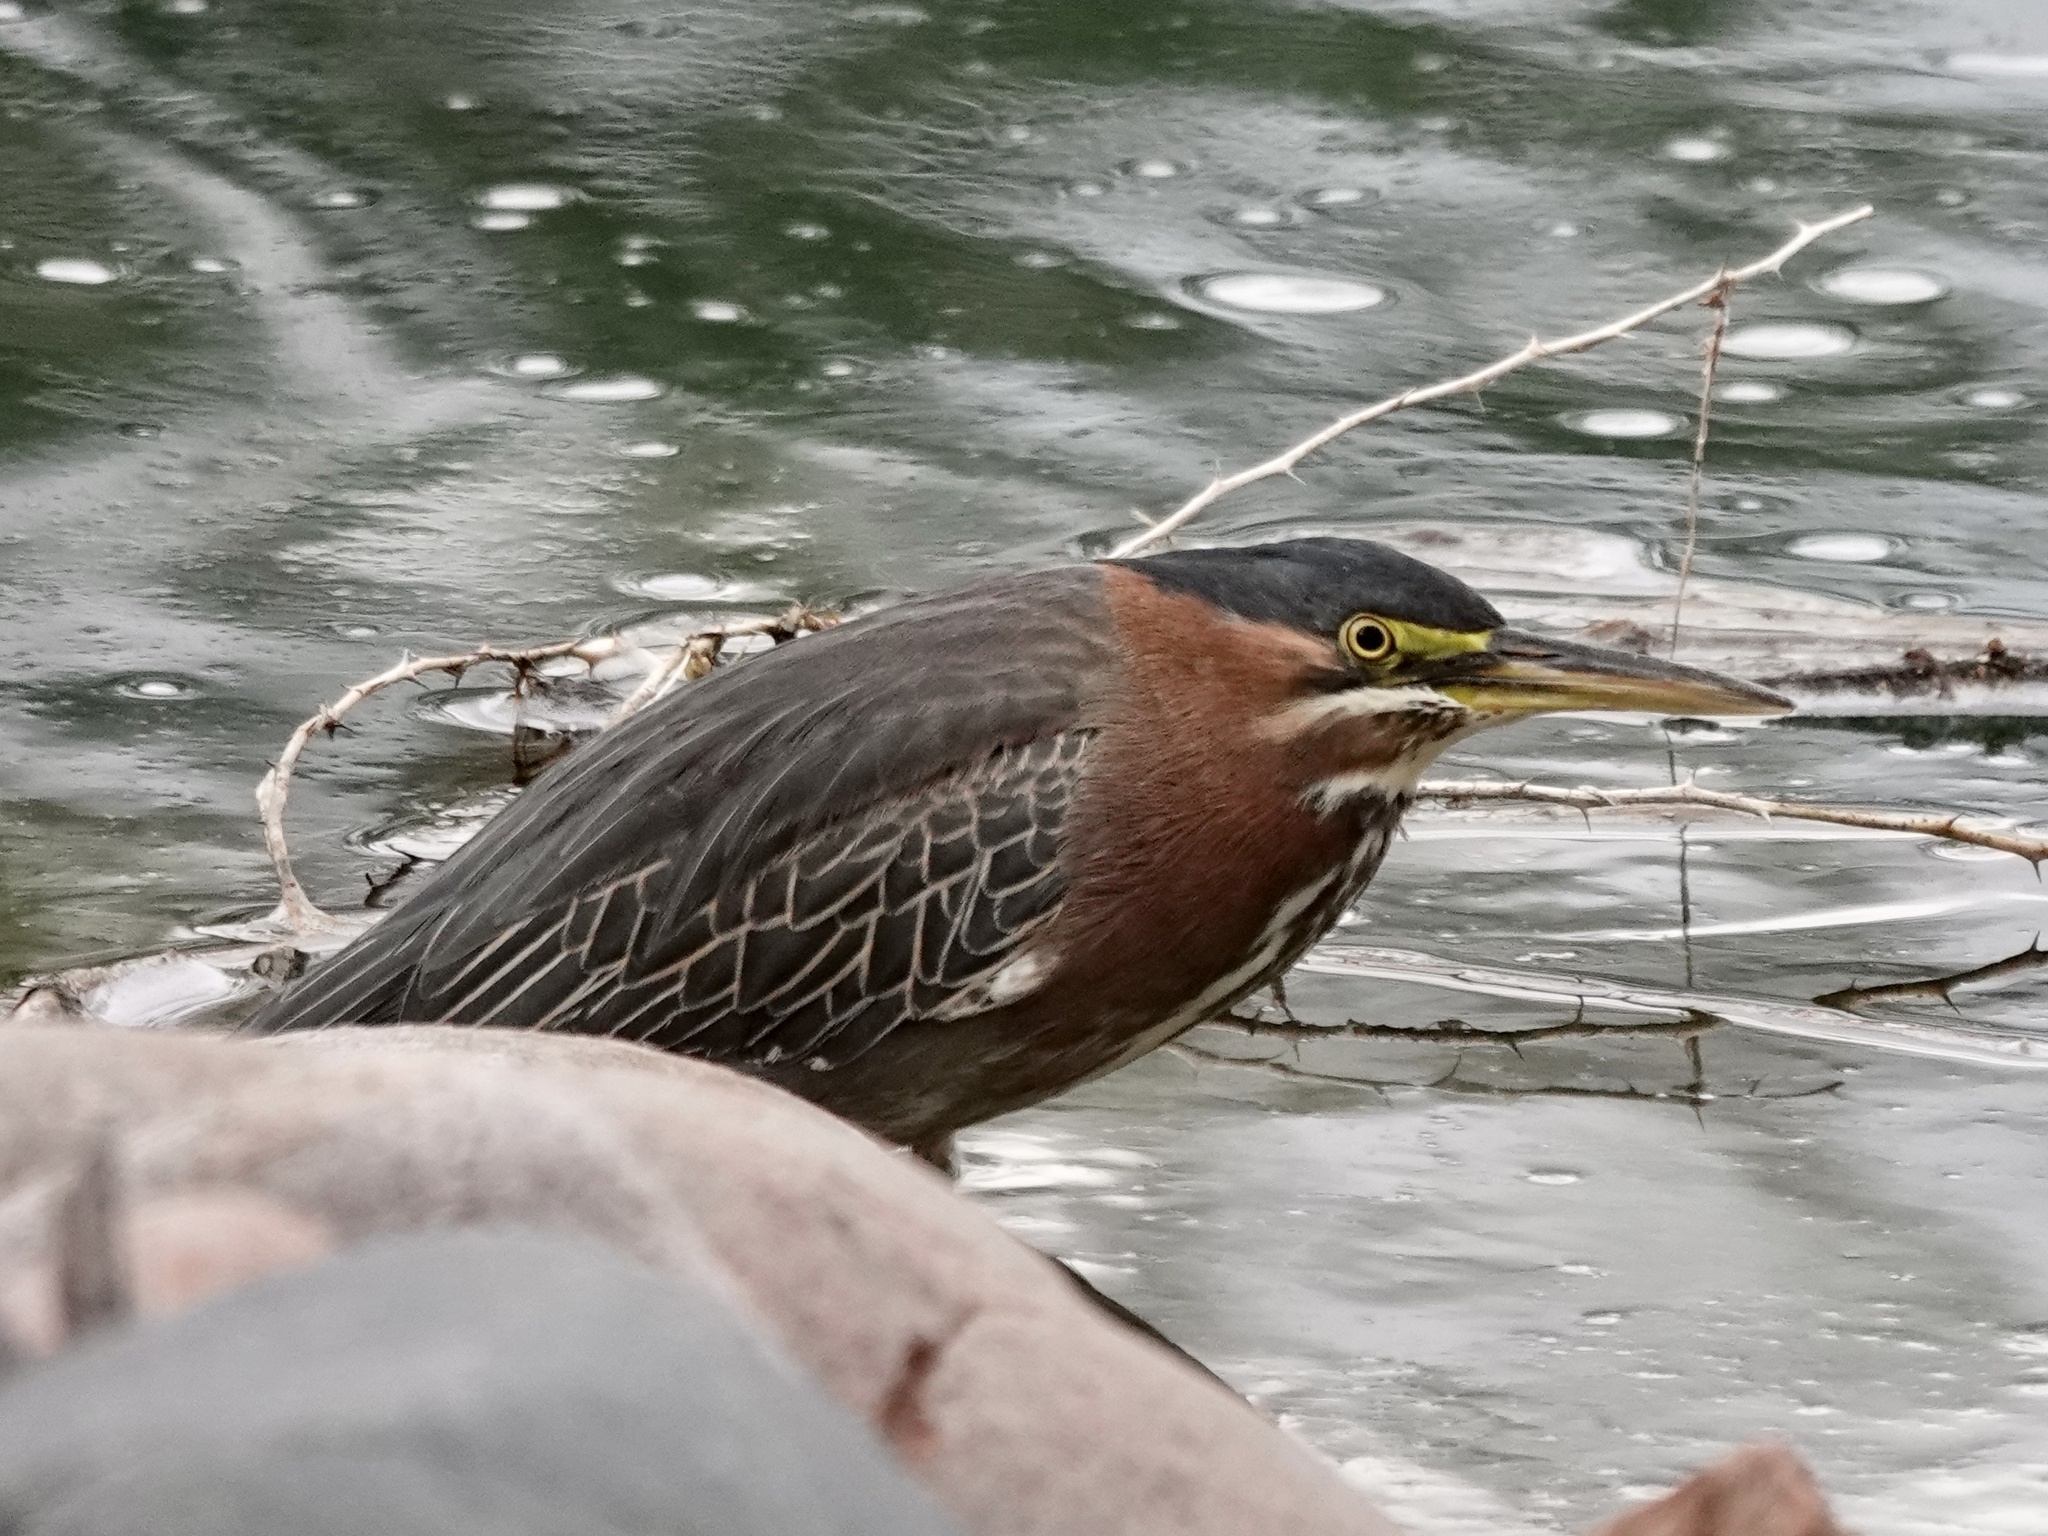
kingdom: Animalia
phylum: Chordata
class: Aves
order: Pelecaniformes
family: Ardeidae
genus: Butorides
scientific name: Butorides virescens
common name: Green heron
